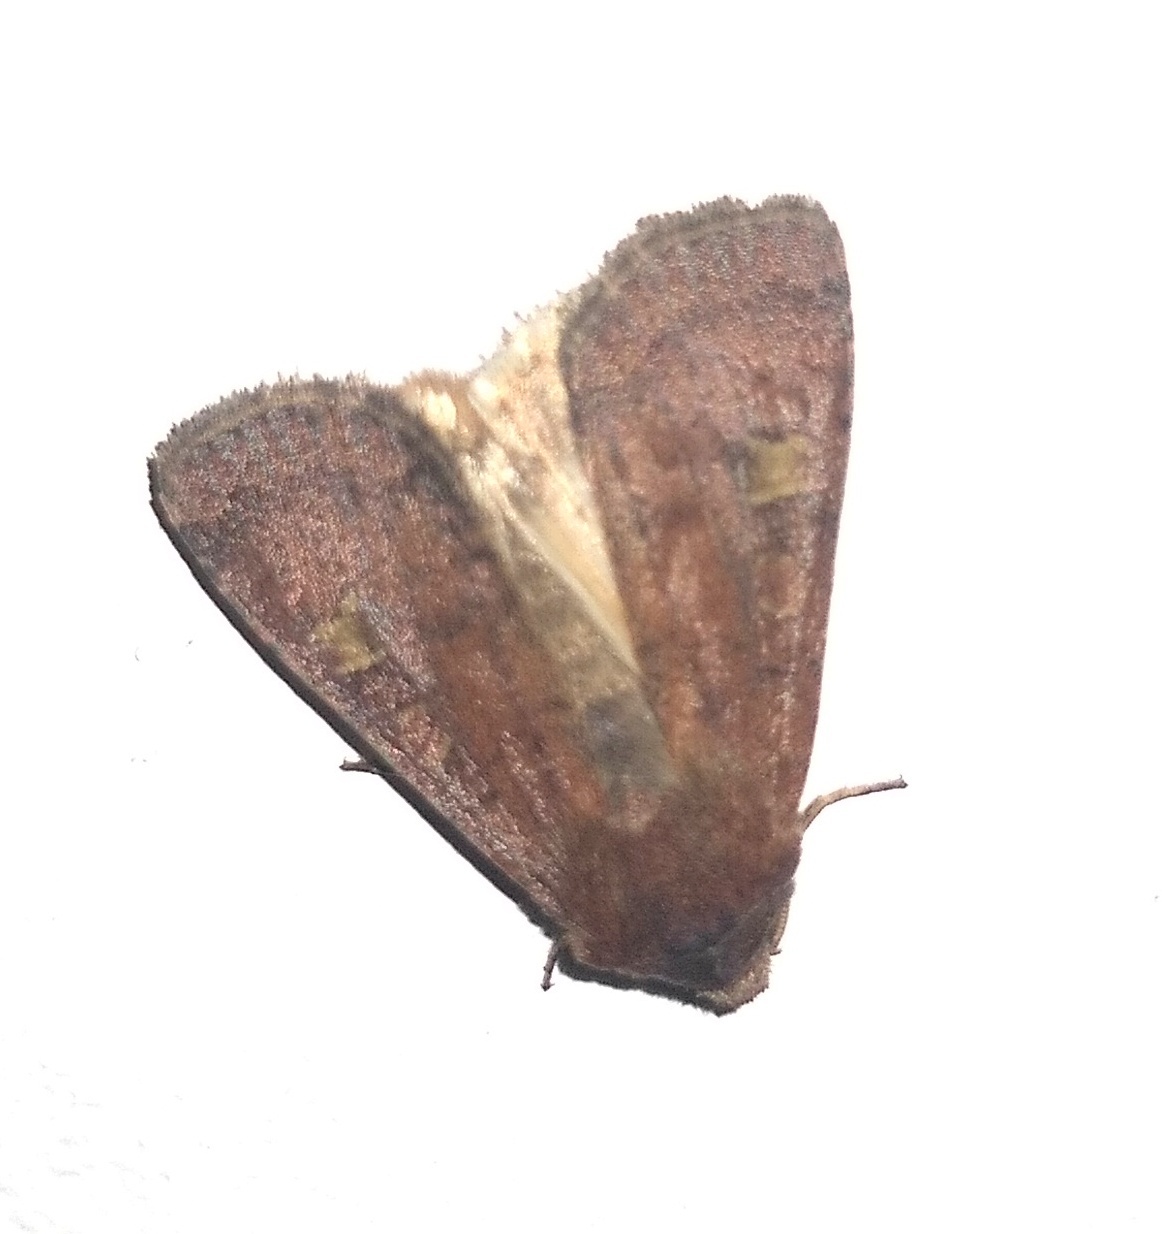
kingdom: Animalia
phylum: Arthropoda
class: Insecta
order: Lepidoptera
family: Noctuidae
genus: Xestia
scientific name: Xestia xanthographa
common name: Square-spot rustic
